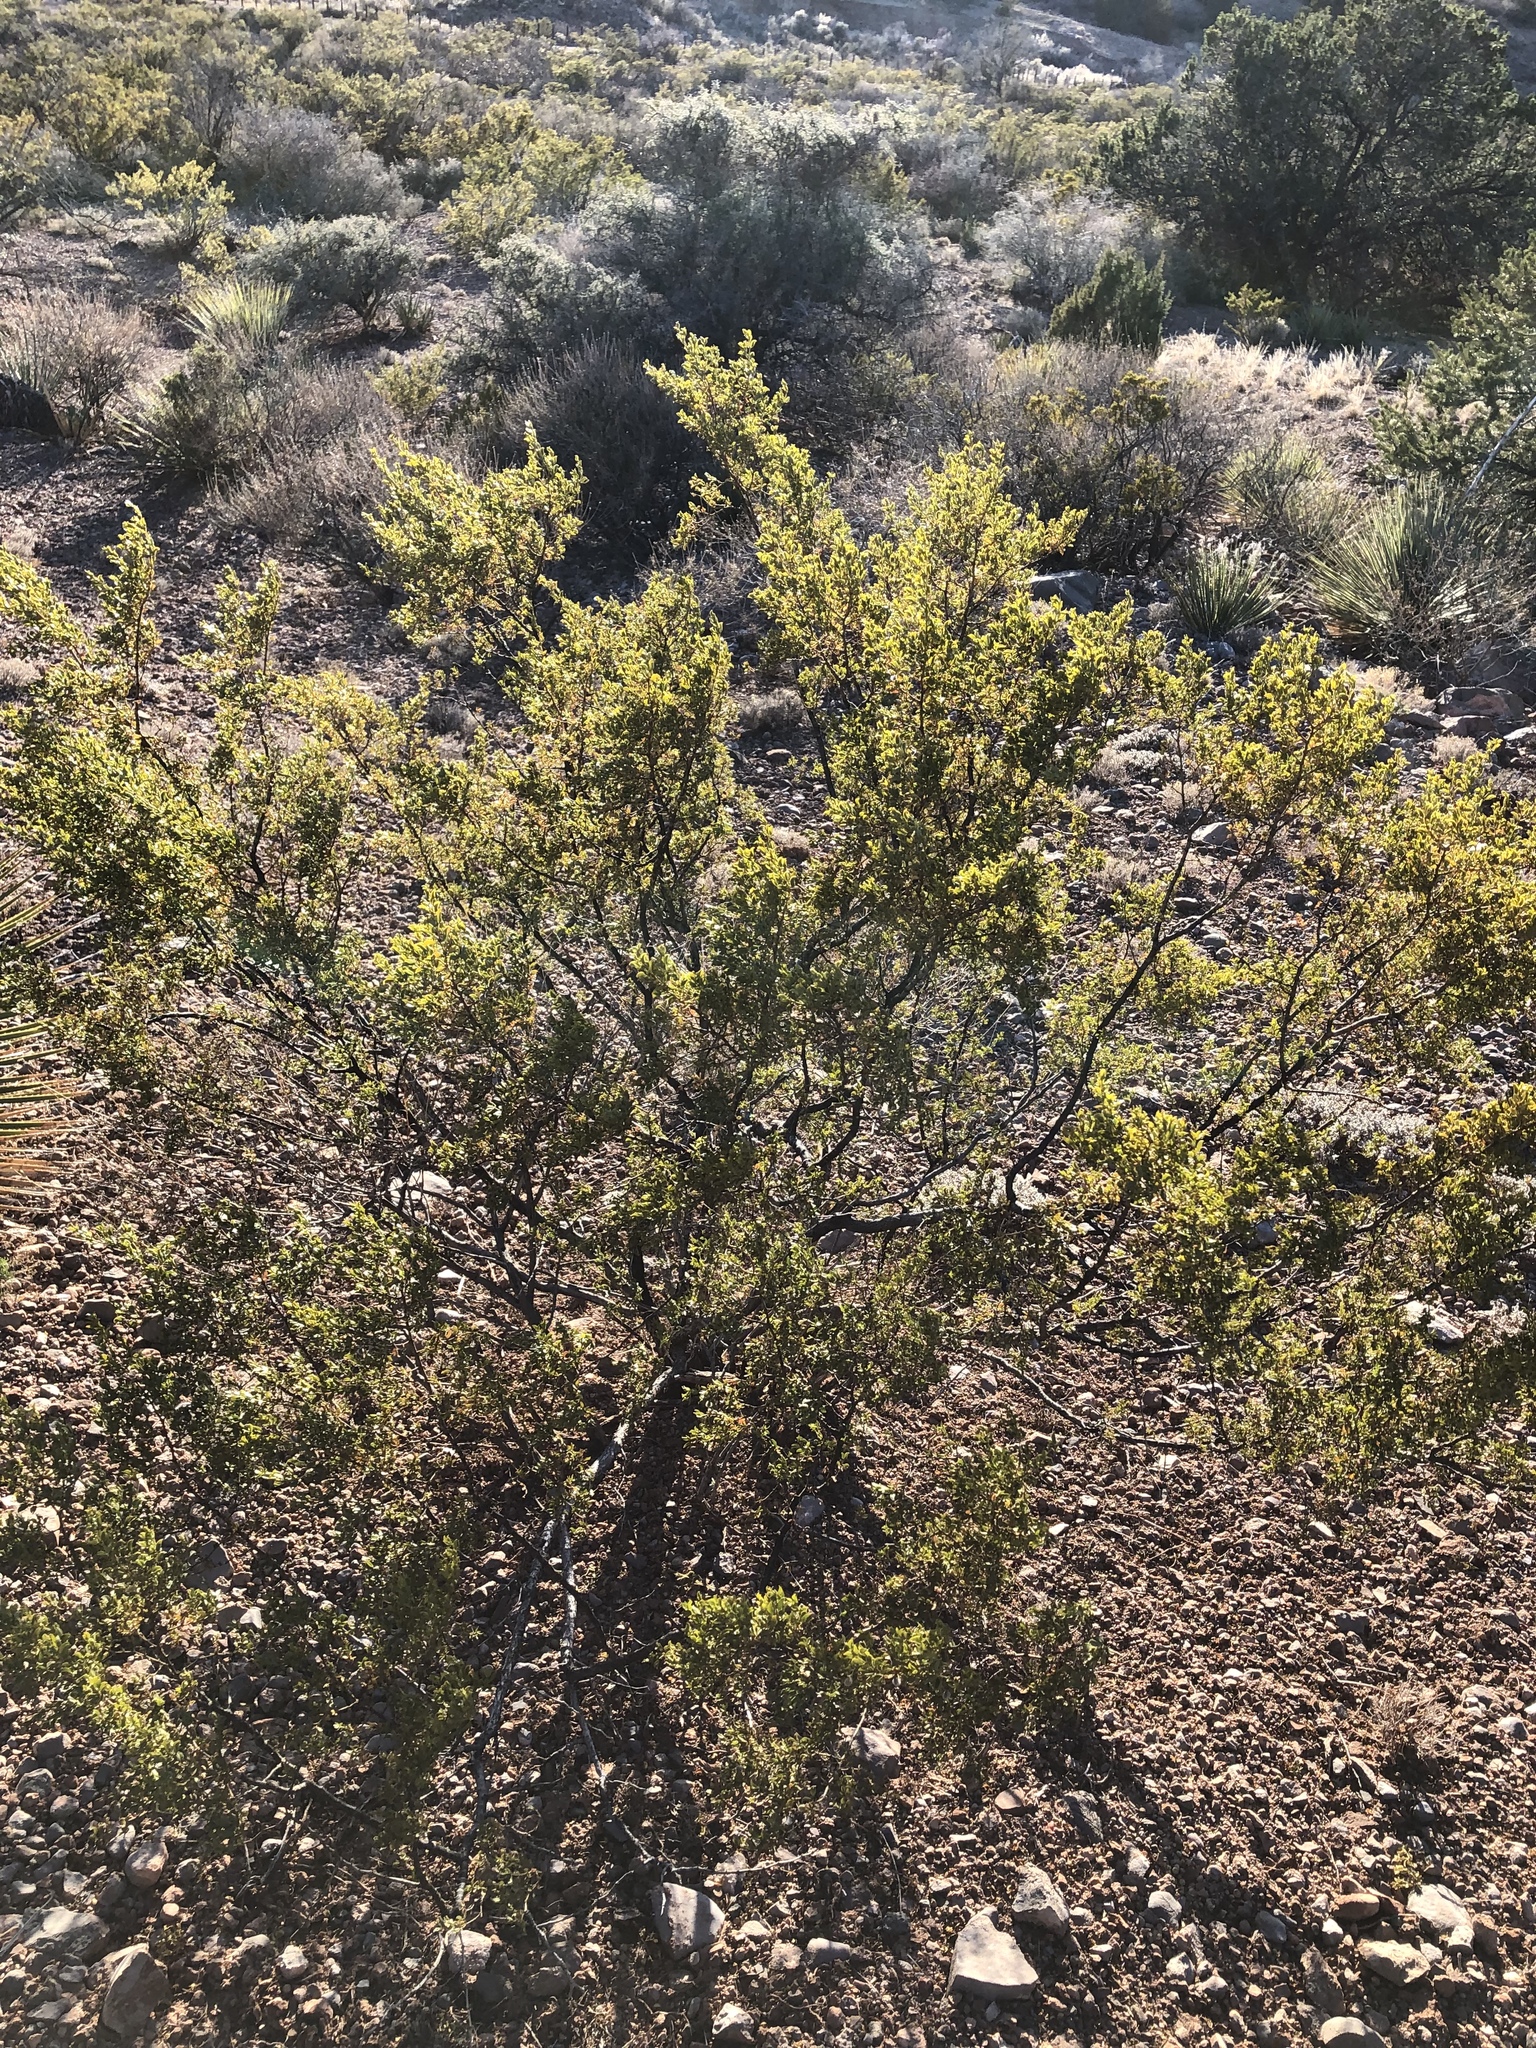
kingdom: Plantae
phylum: Tracheophyta
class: Magnoliopsida
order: Zygophyllales
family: Zygophyllaceae
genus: Larrea
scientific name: Larrea tridentata
